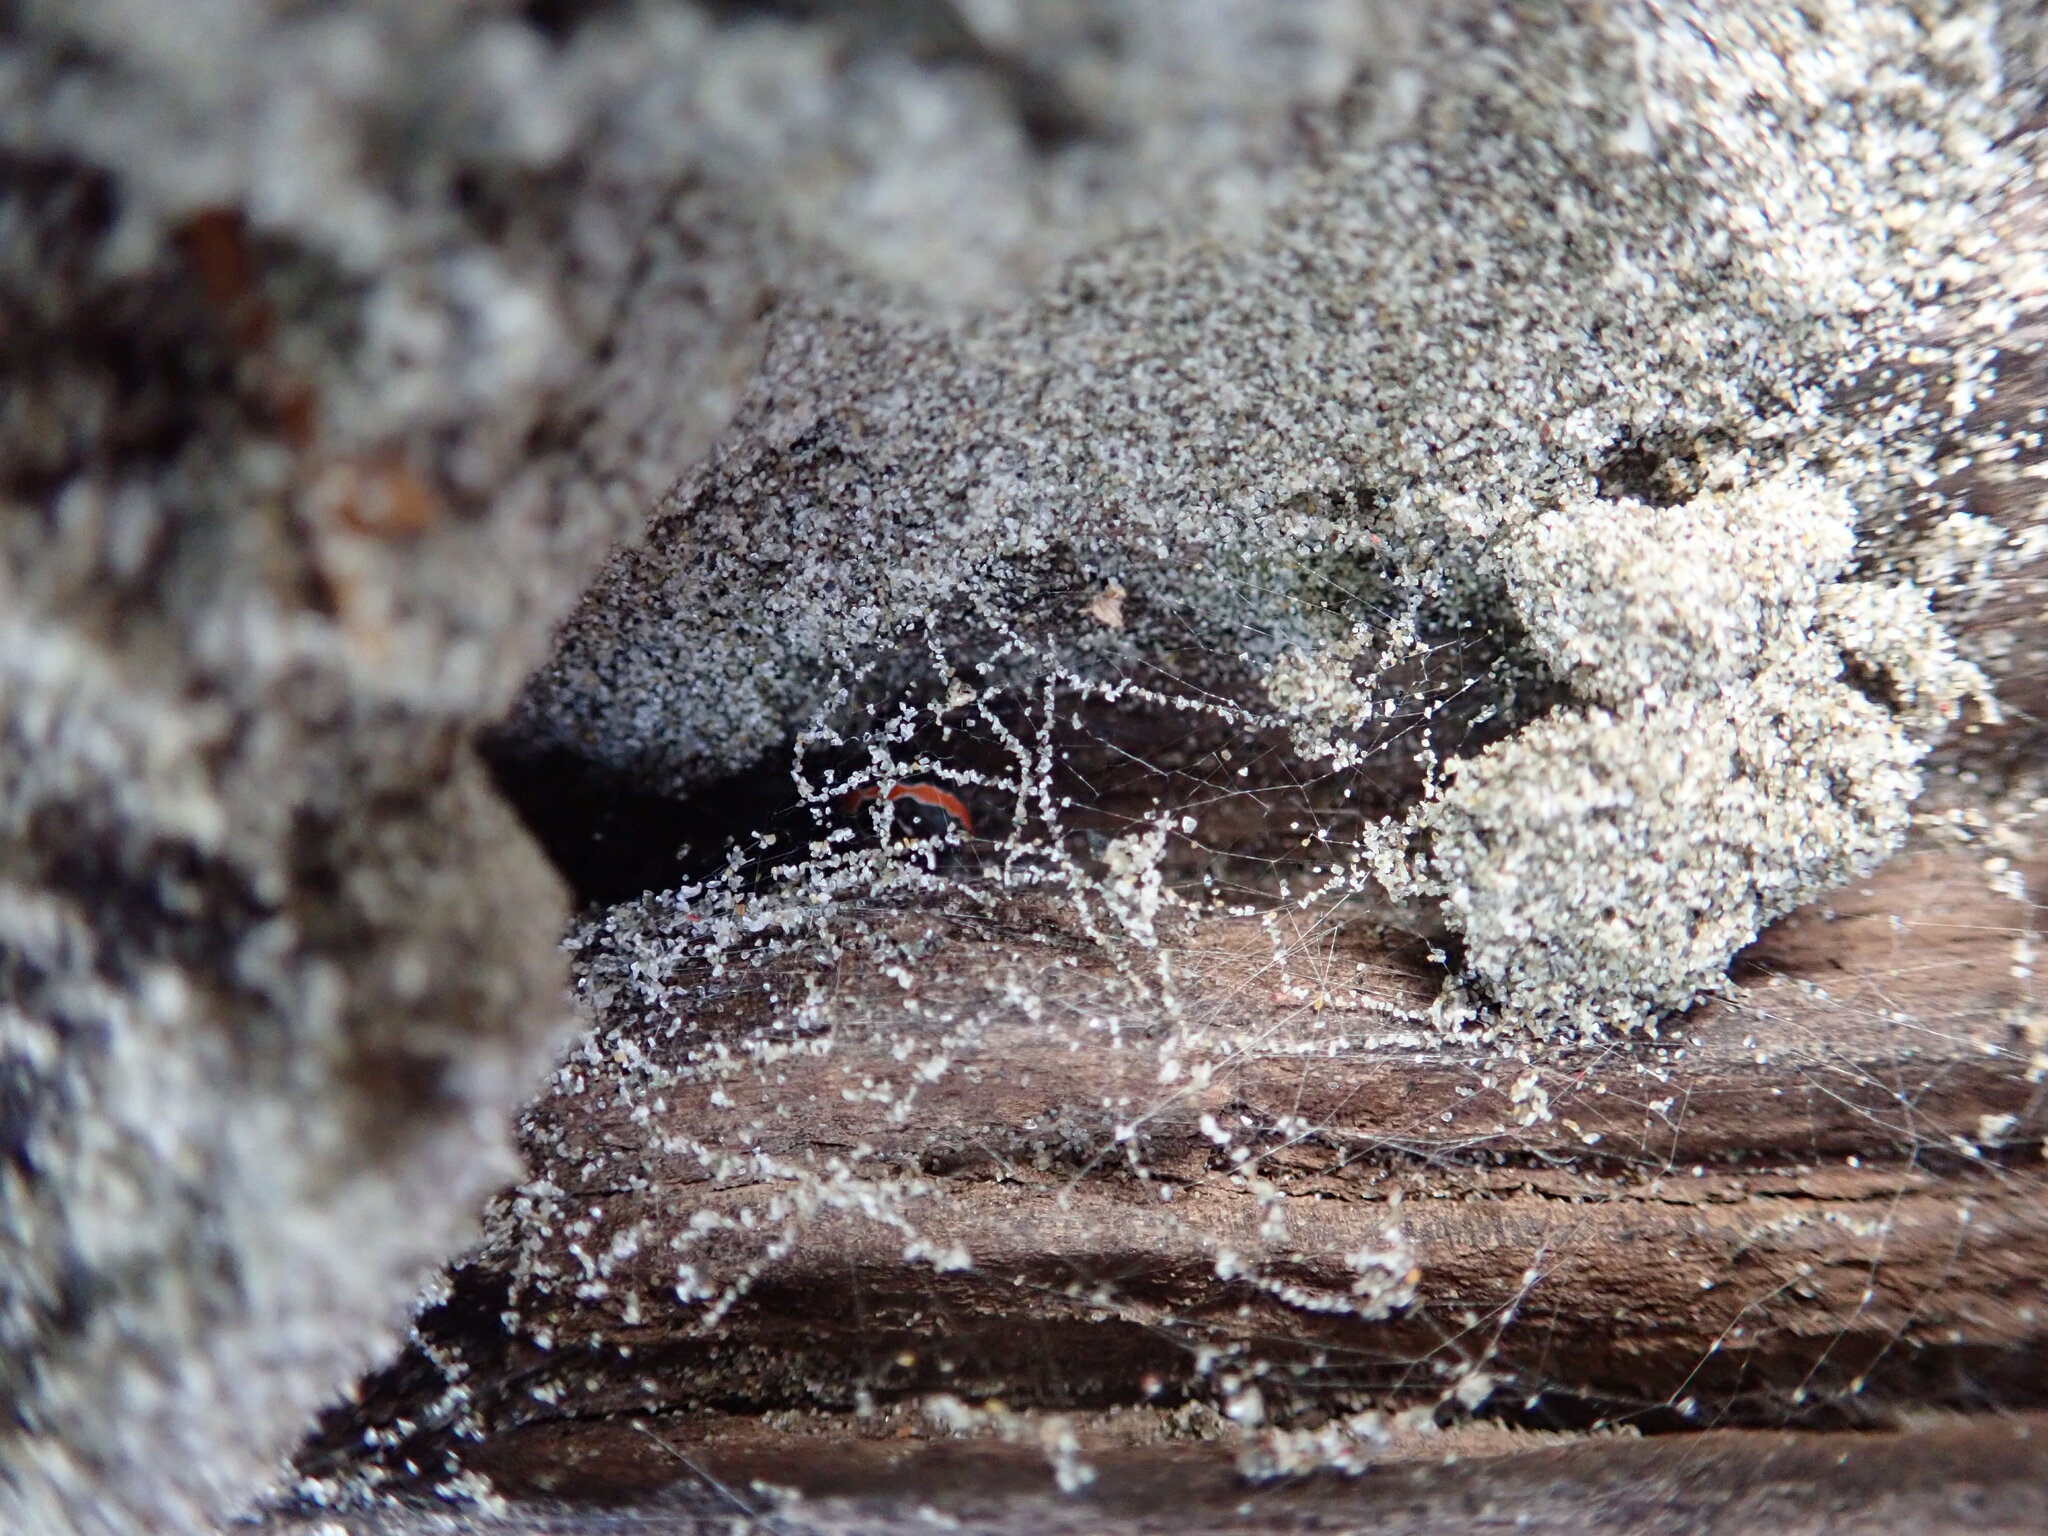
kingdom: Animalia
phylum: Arthropoda
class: Arachnida
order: Araneae
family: Theridiidae
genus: Latrodectus
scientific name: Latrodectus katipo
